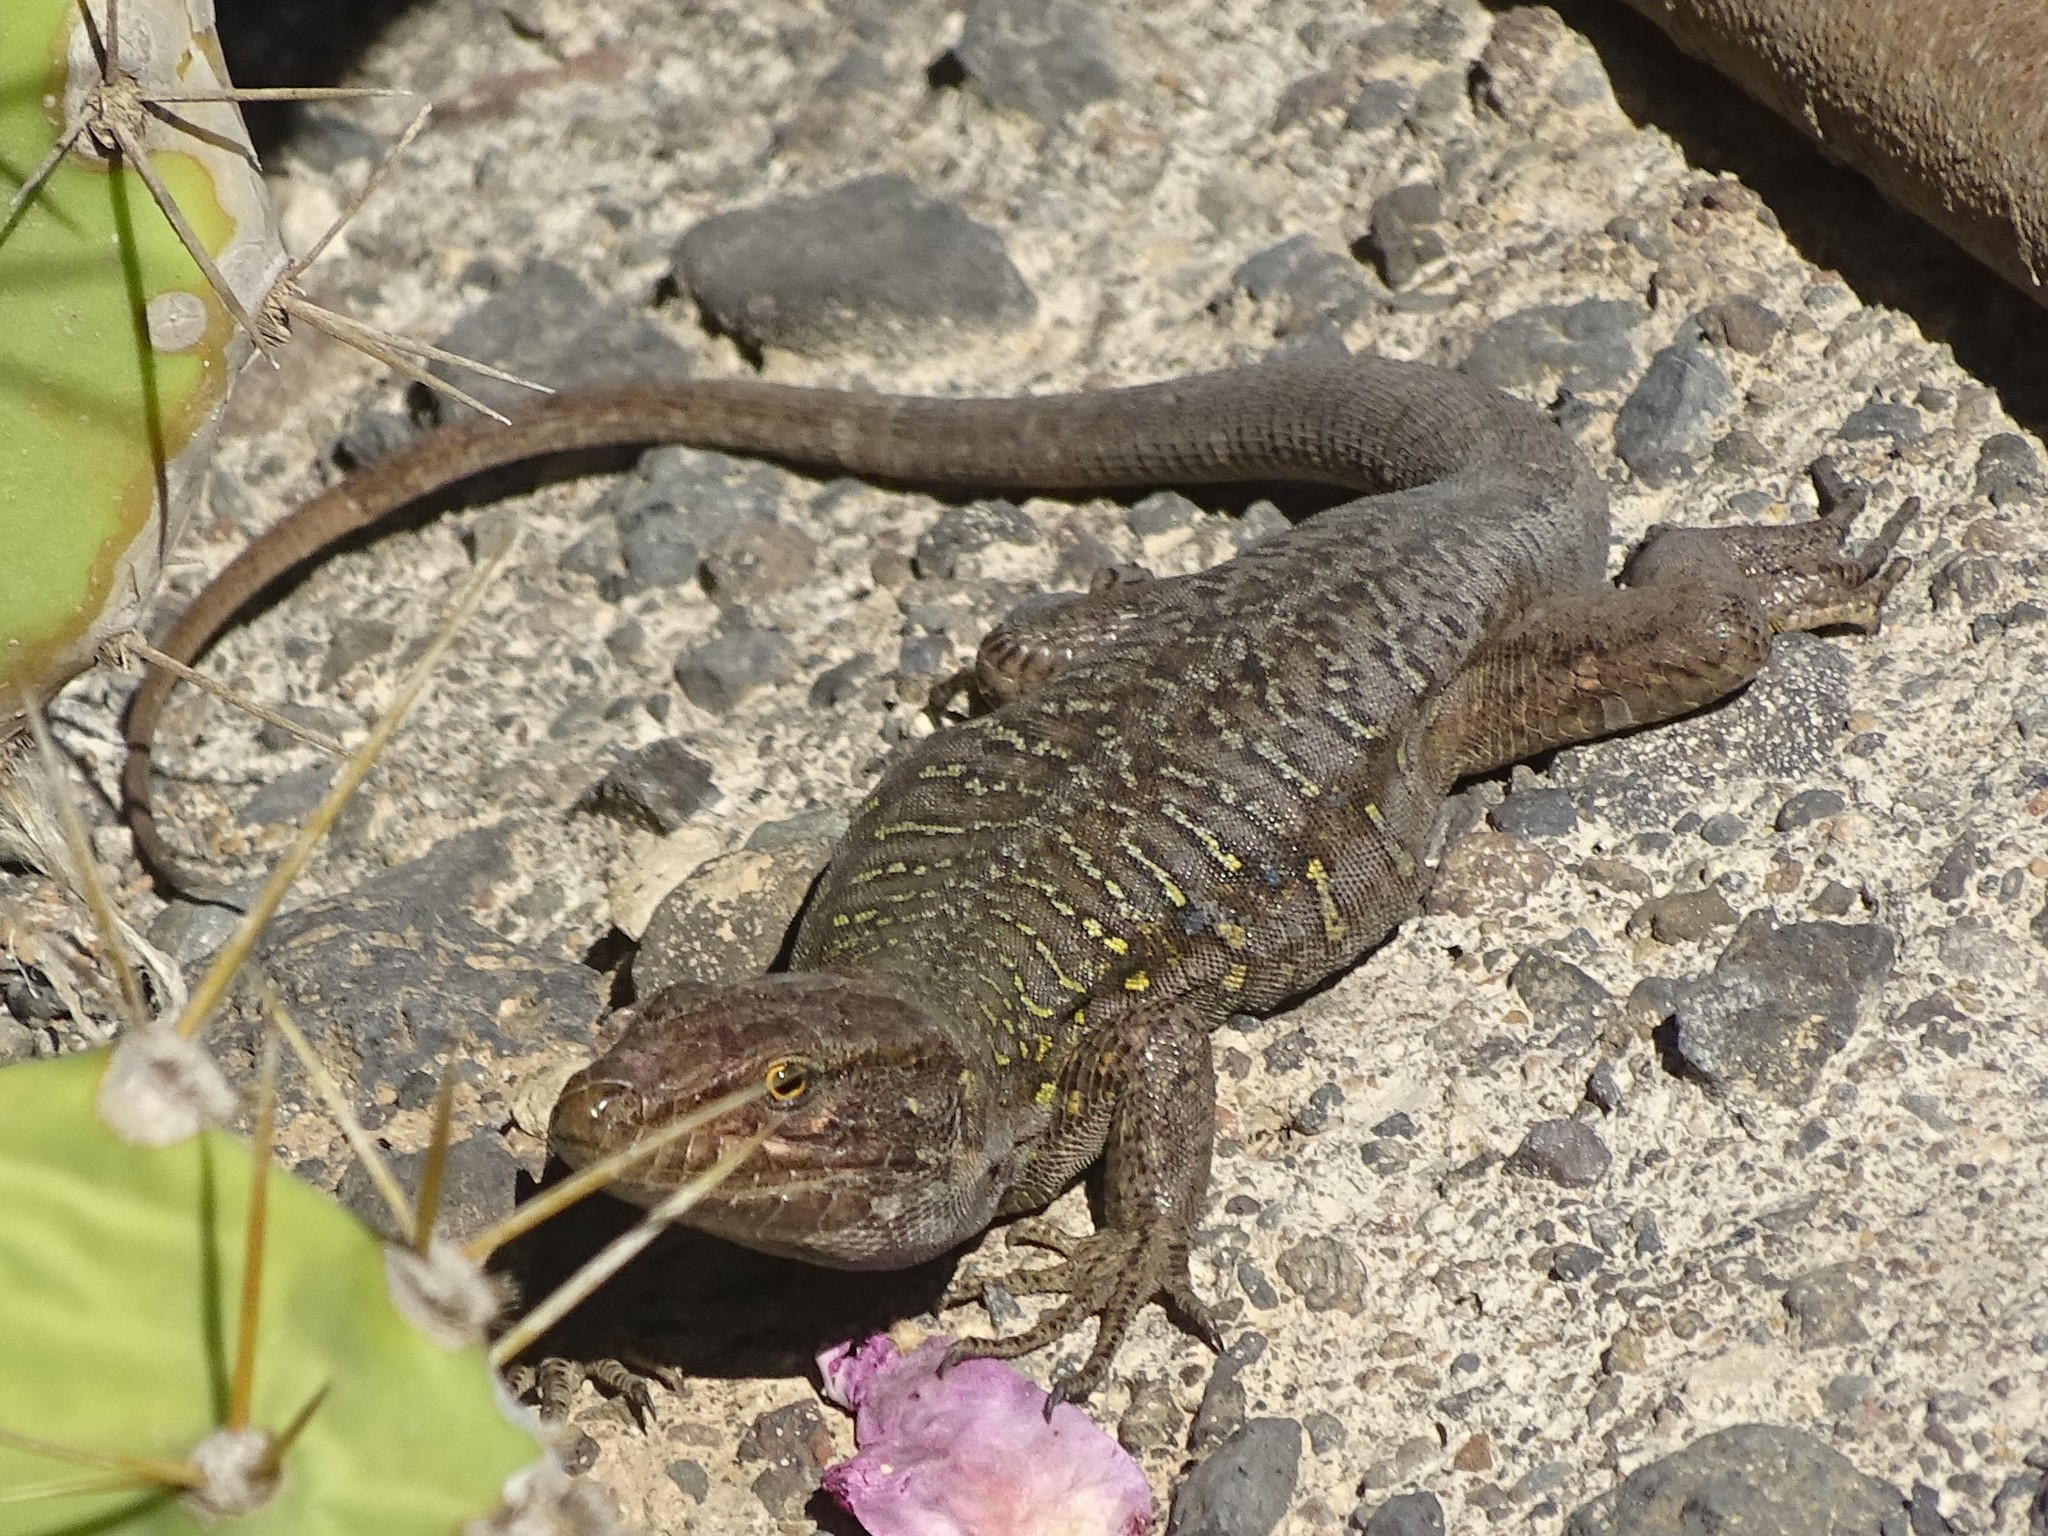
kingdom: Animalia
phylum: Chordata
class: Squamata
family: Lacertidae
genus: Gallotia
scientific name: Gallotia galloti
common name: Gallot's lizard
